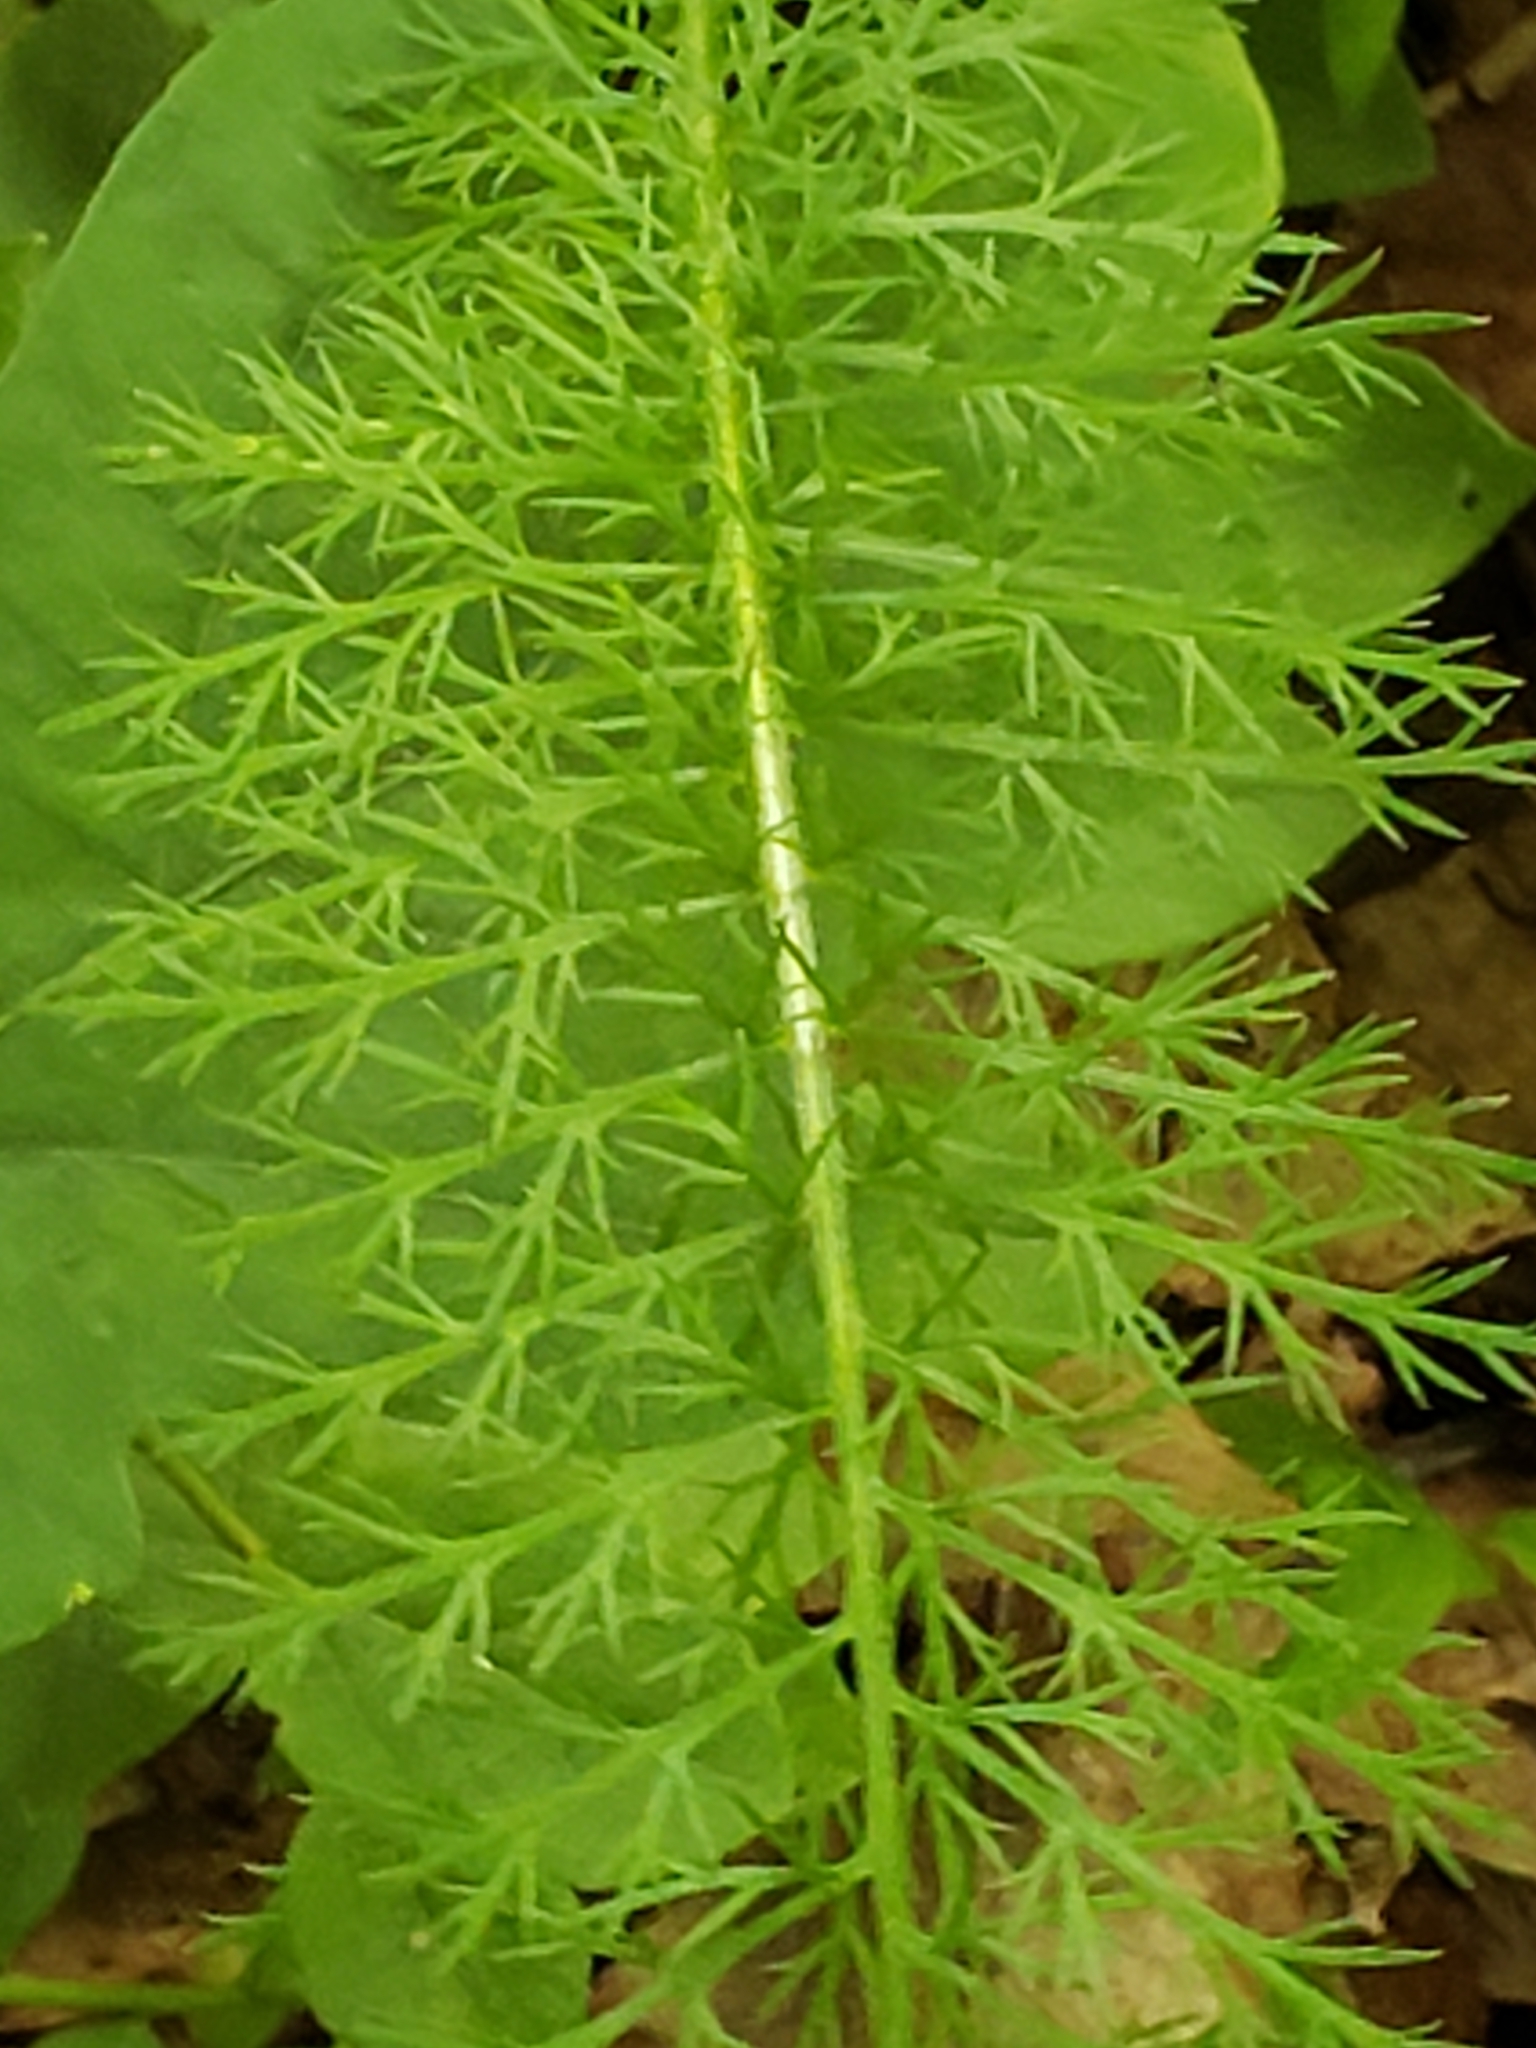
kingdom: Plantae
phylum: Tracheophyta
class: Magnoliopsida
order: Asterales
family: Asteraceae
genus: Achillea
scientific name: Achillea millefolium
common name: Yarrow
